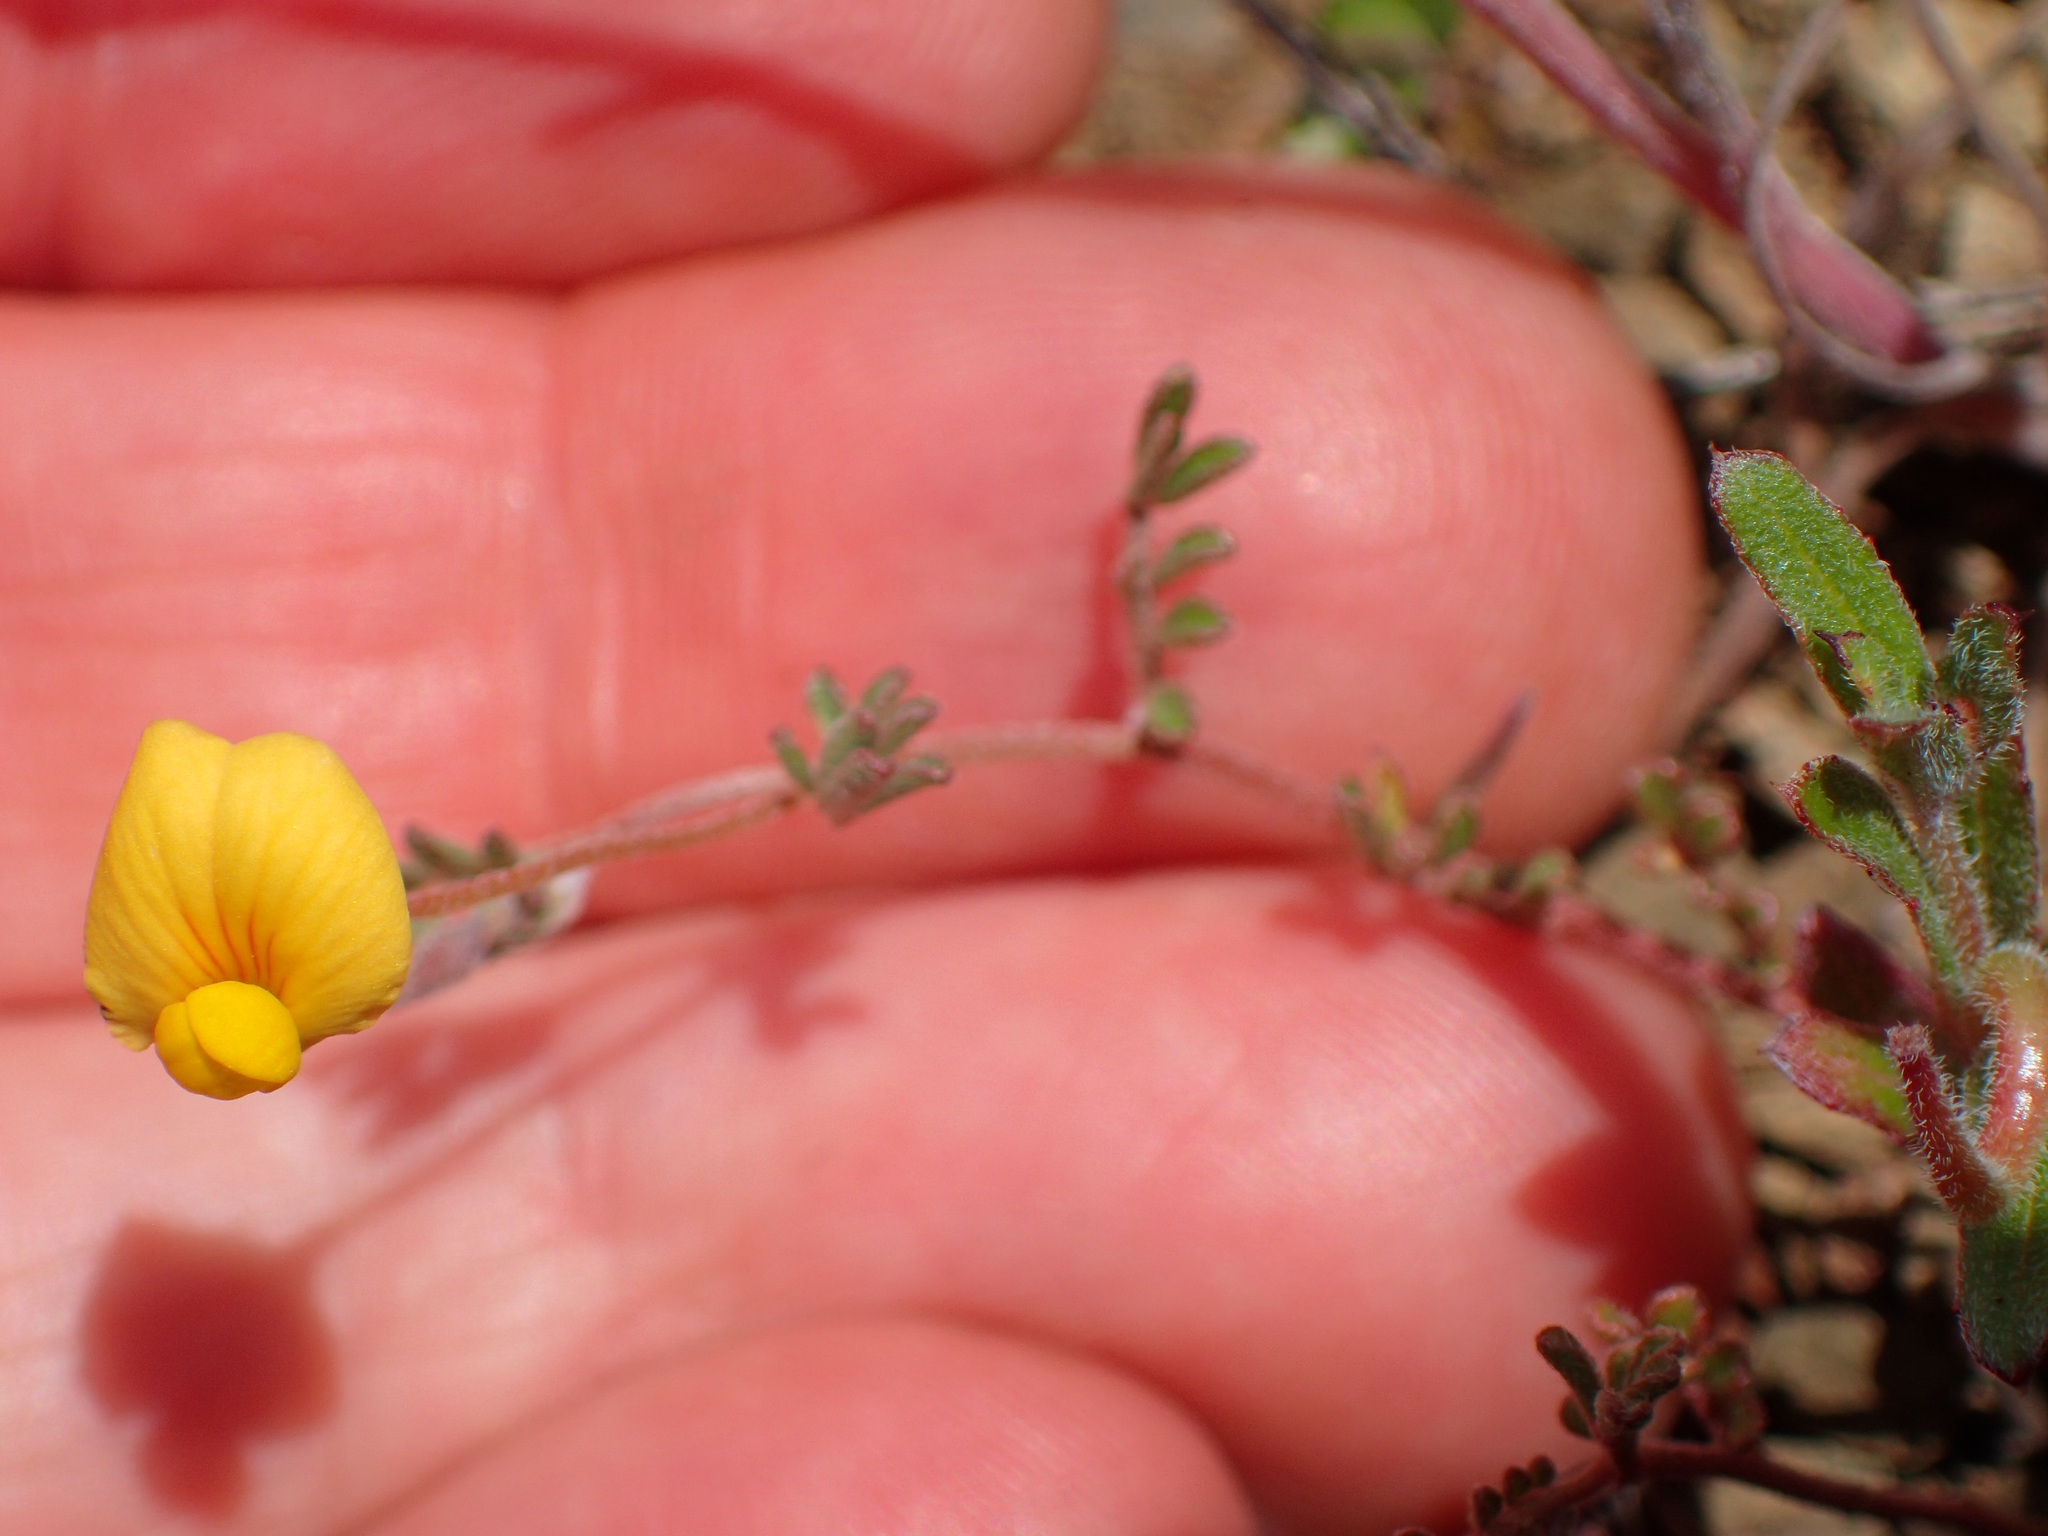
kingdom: Plantae
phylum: Tracheophyta
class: Magnoliopsida
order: Fabales
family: Fabaceae
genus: Acmispon
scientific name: Acmispon strigosus
